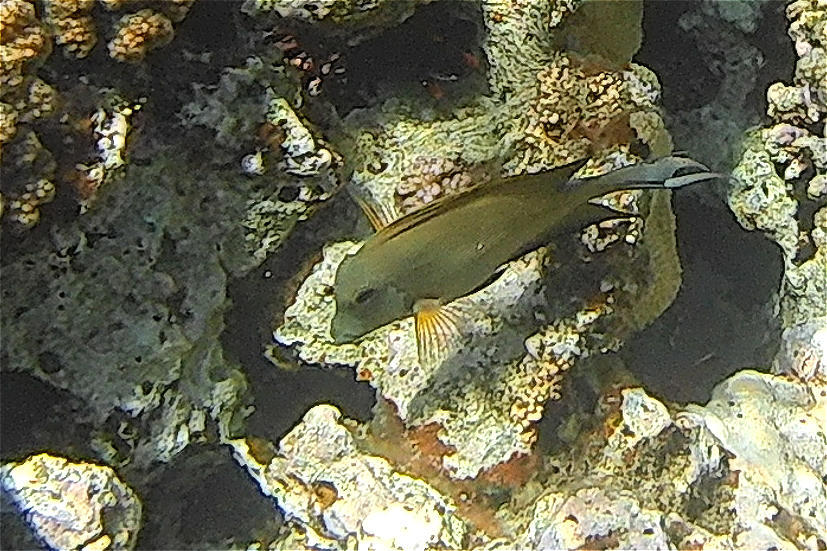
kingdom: Animalia
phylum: Chordata
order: Perciformes
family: Acanthuridae
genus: Ctenochaetus
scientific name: Ctenochaetus striatus
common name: Bristle-toothed surgeonfish
